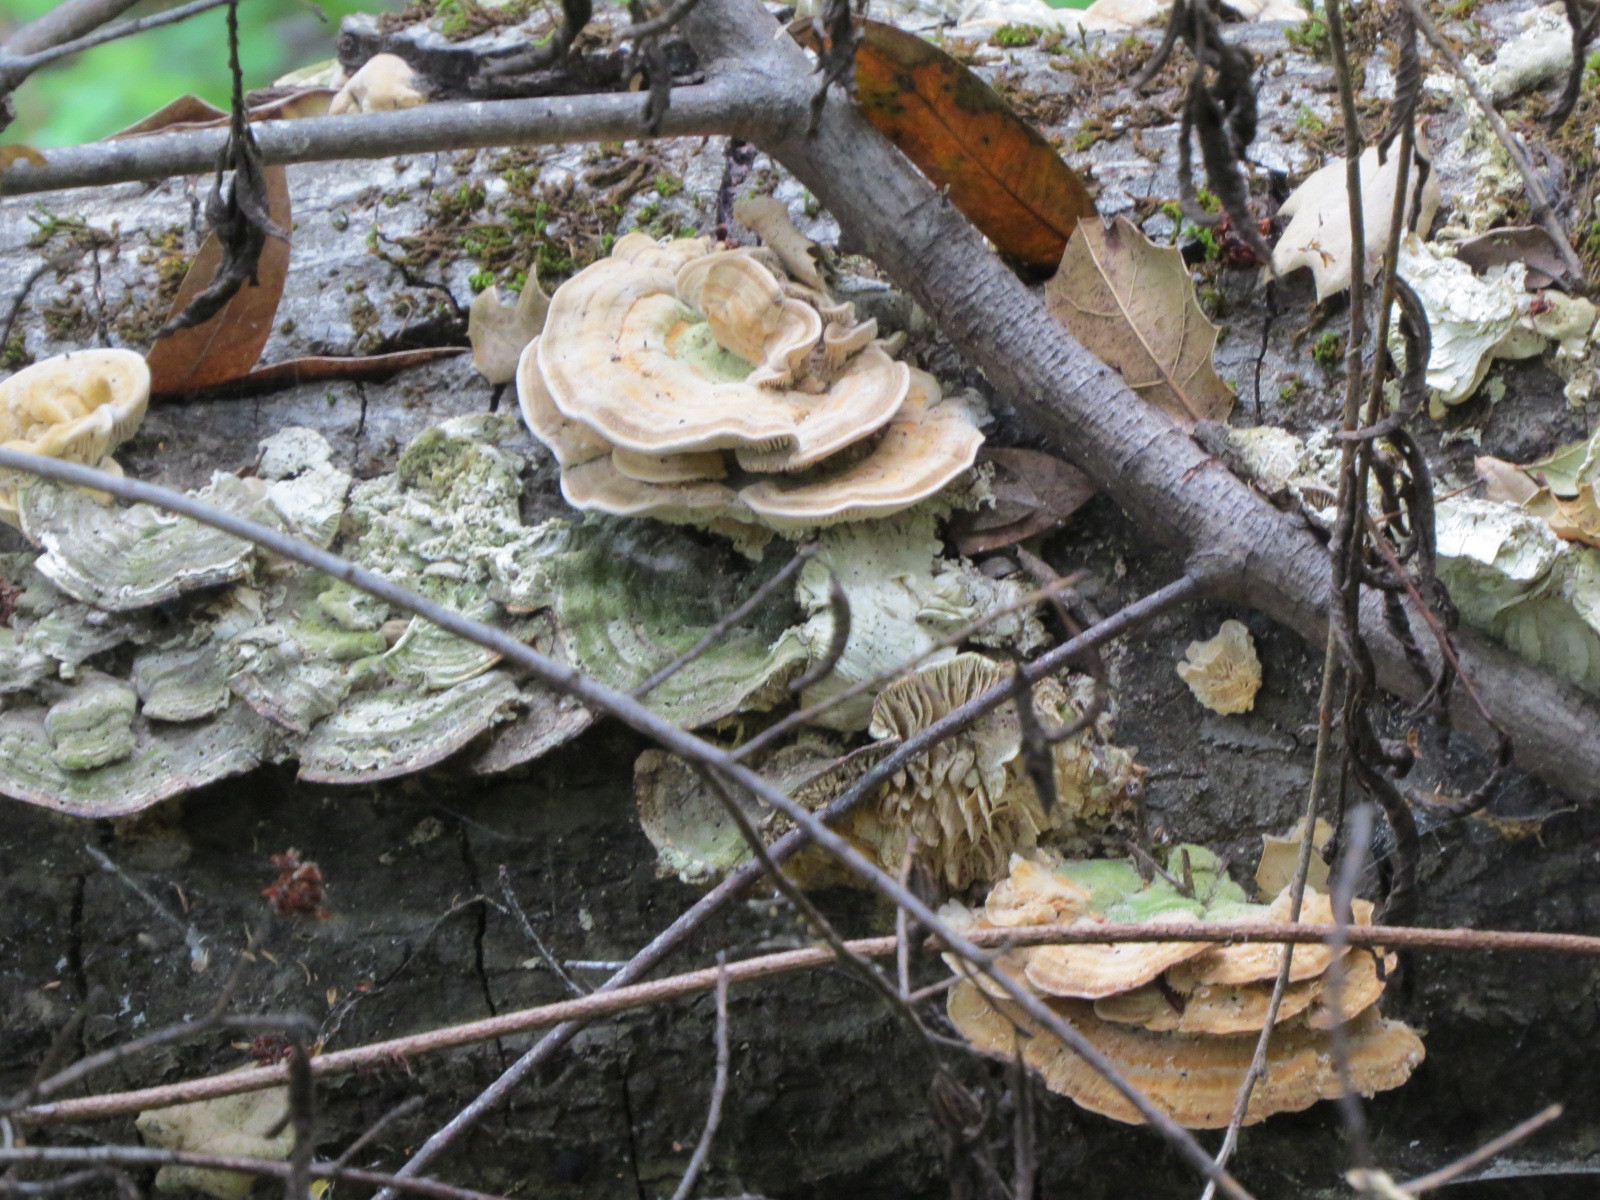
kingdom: Fungi
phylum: Basidiomycota
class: Agaricomycetes
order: Polyporales
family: Polyporaceae
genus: Lenzites
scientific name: Lenzites betulinus
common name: Birch mazegill
